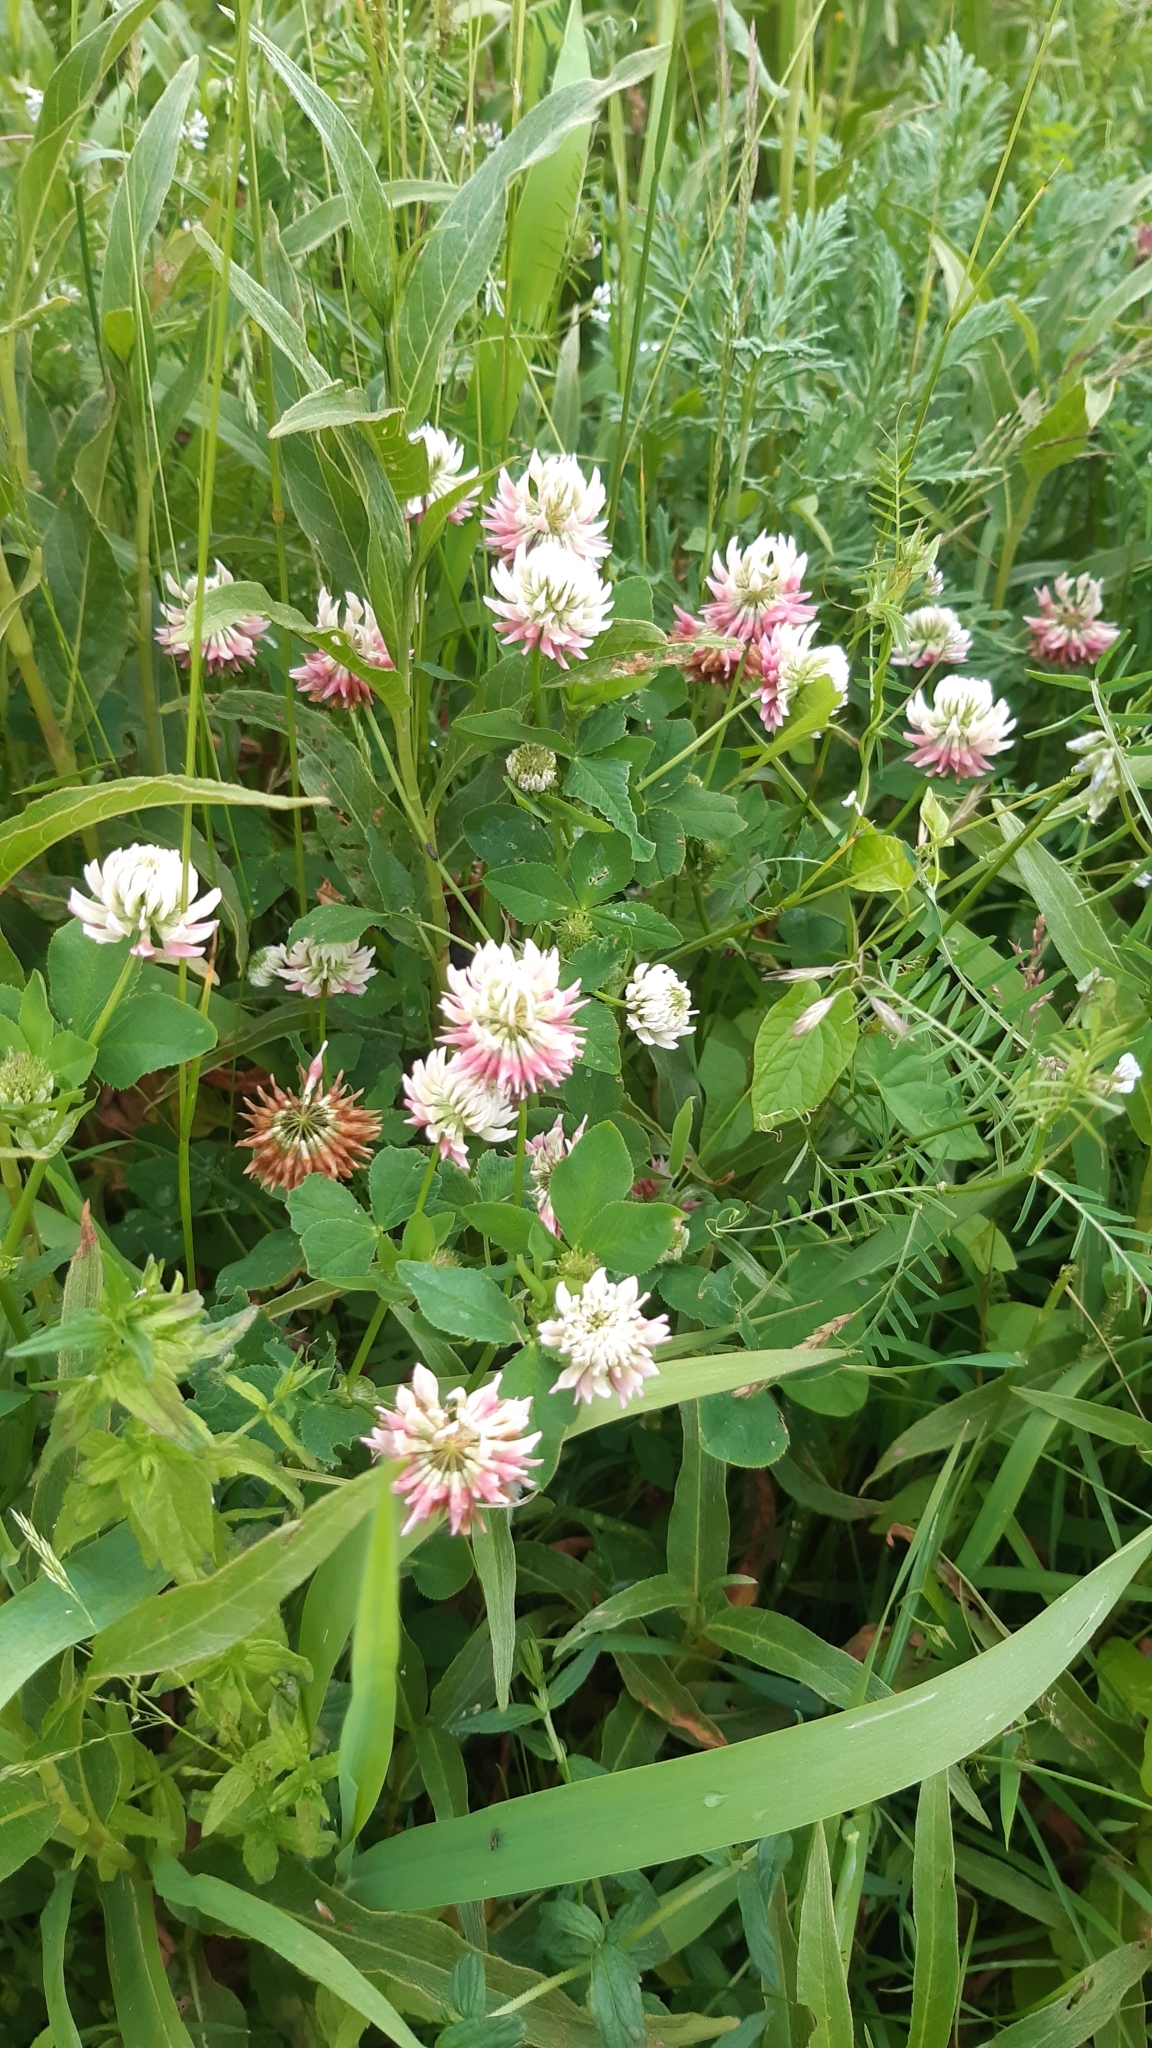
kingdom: Plantae
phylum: Tracheophyta
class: Magnoliopsida
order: Fabales
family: Fabaceae
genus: Trifolium
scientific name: Trifolium hybridum
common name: Alsike clover
